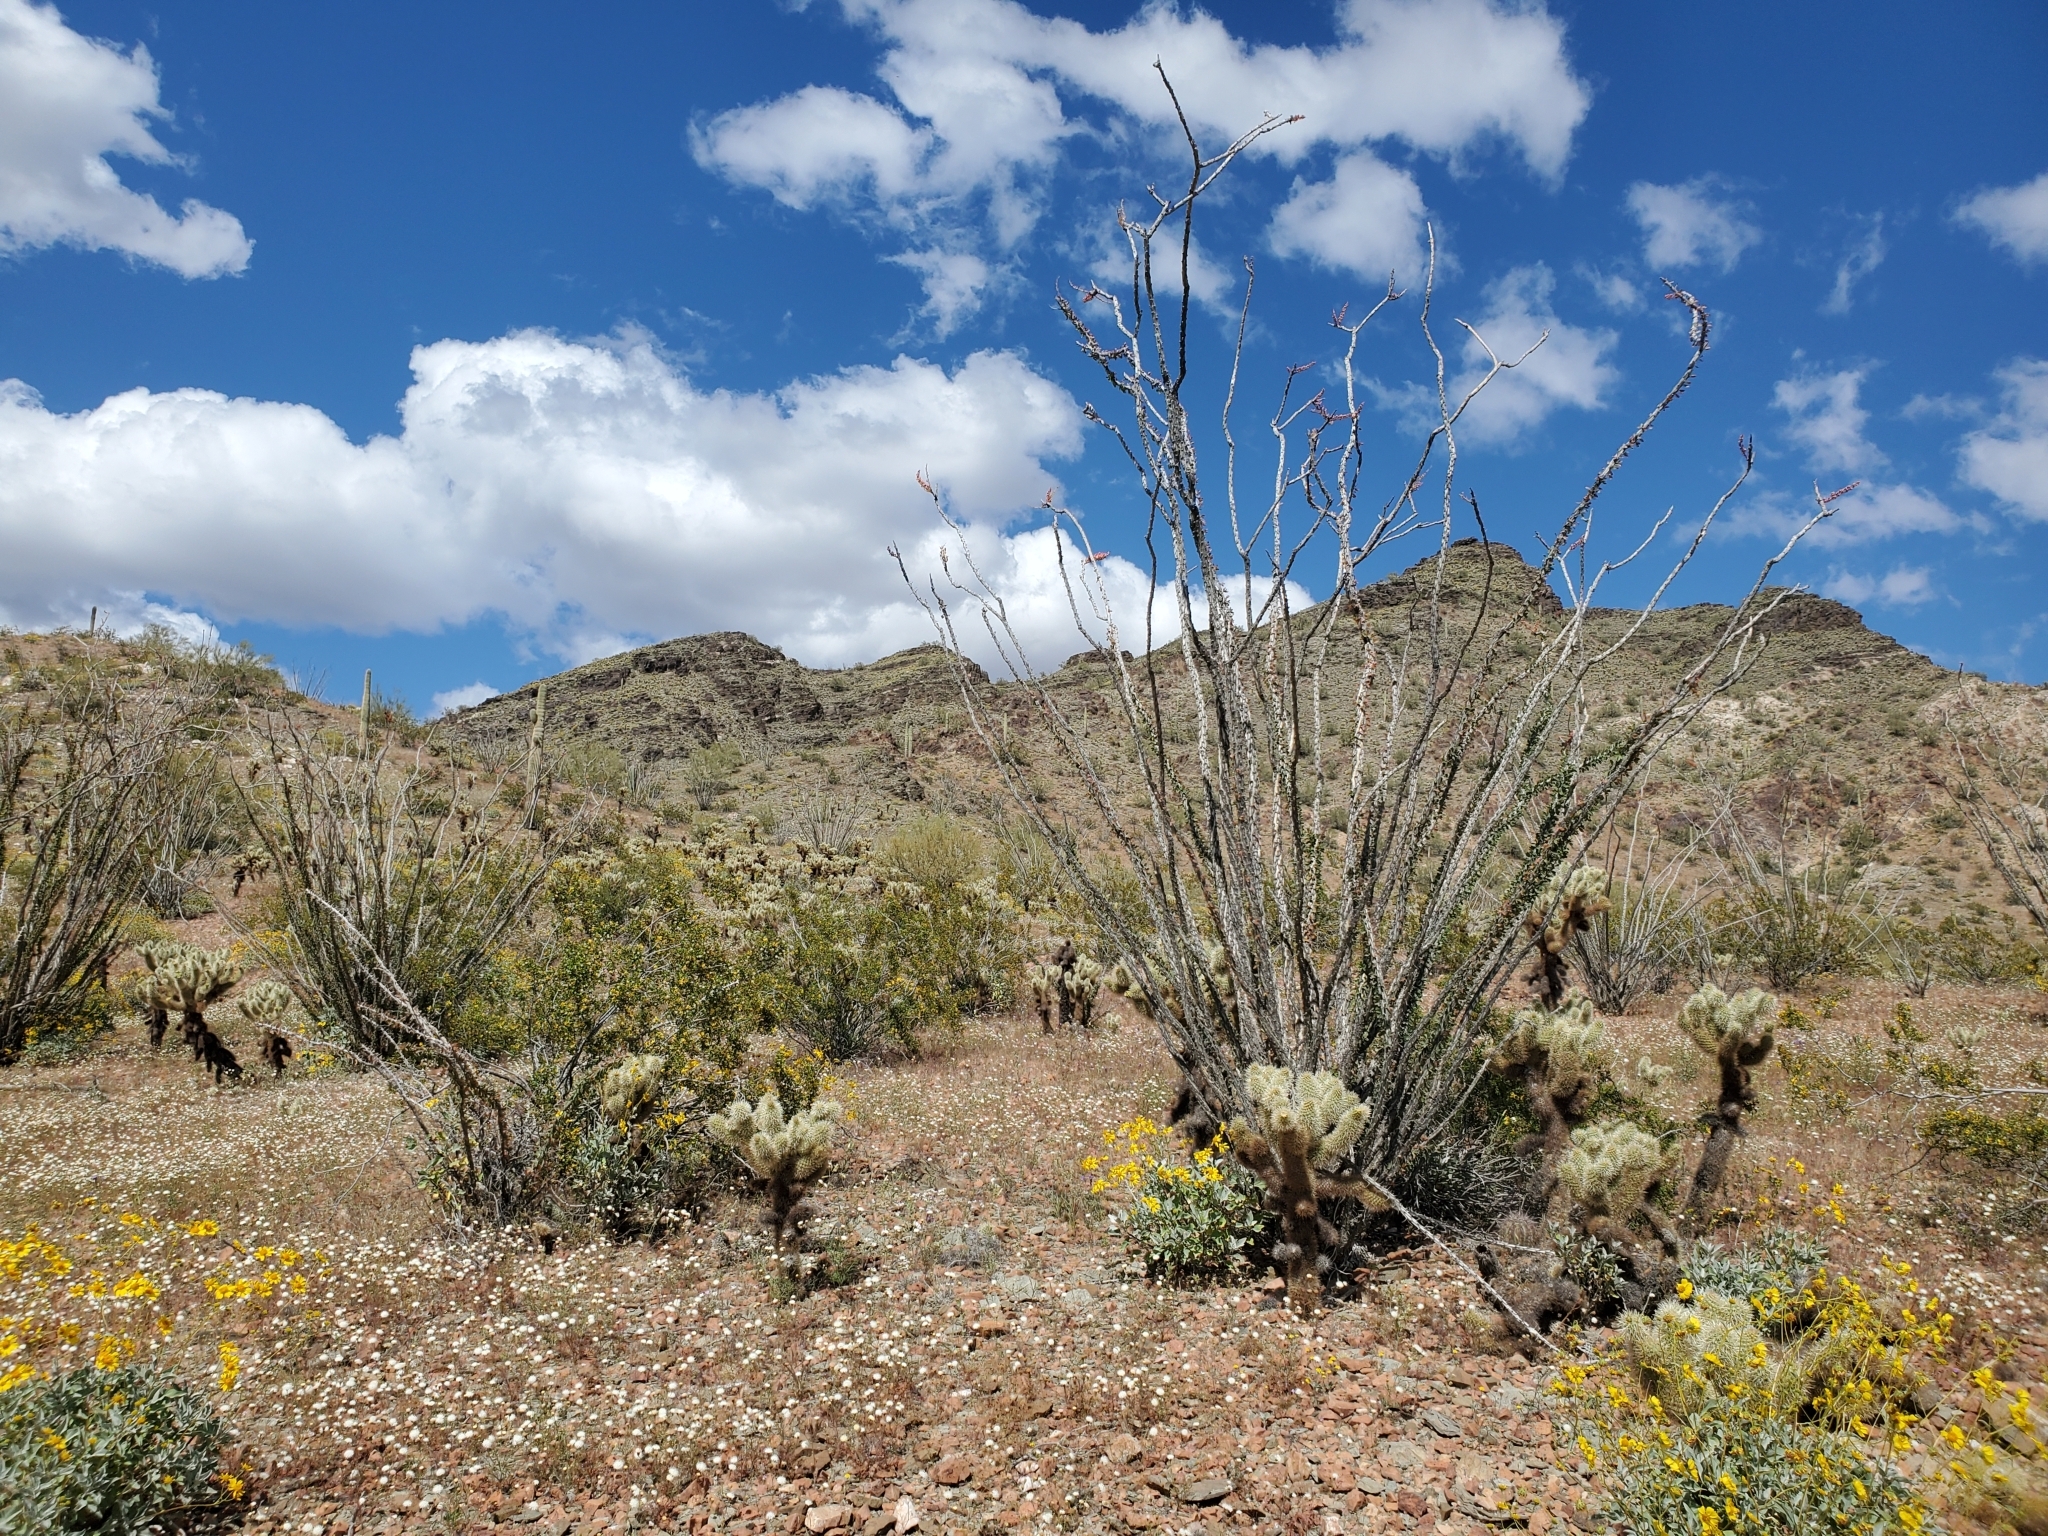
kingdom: Plantae
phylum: Tracheophyta
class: Magnoliopsida
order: Ericales
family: Fouquieriaceae
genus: Fouquieria
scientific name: Fouquieria splendens
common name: Vine-cactus
